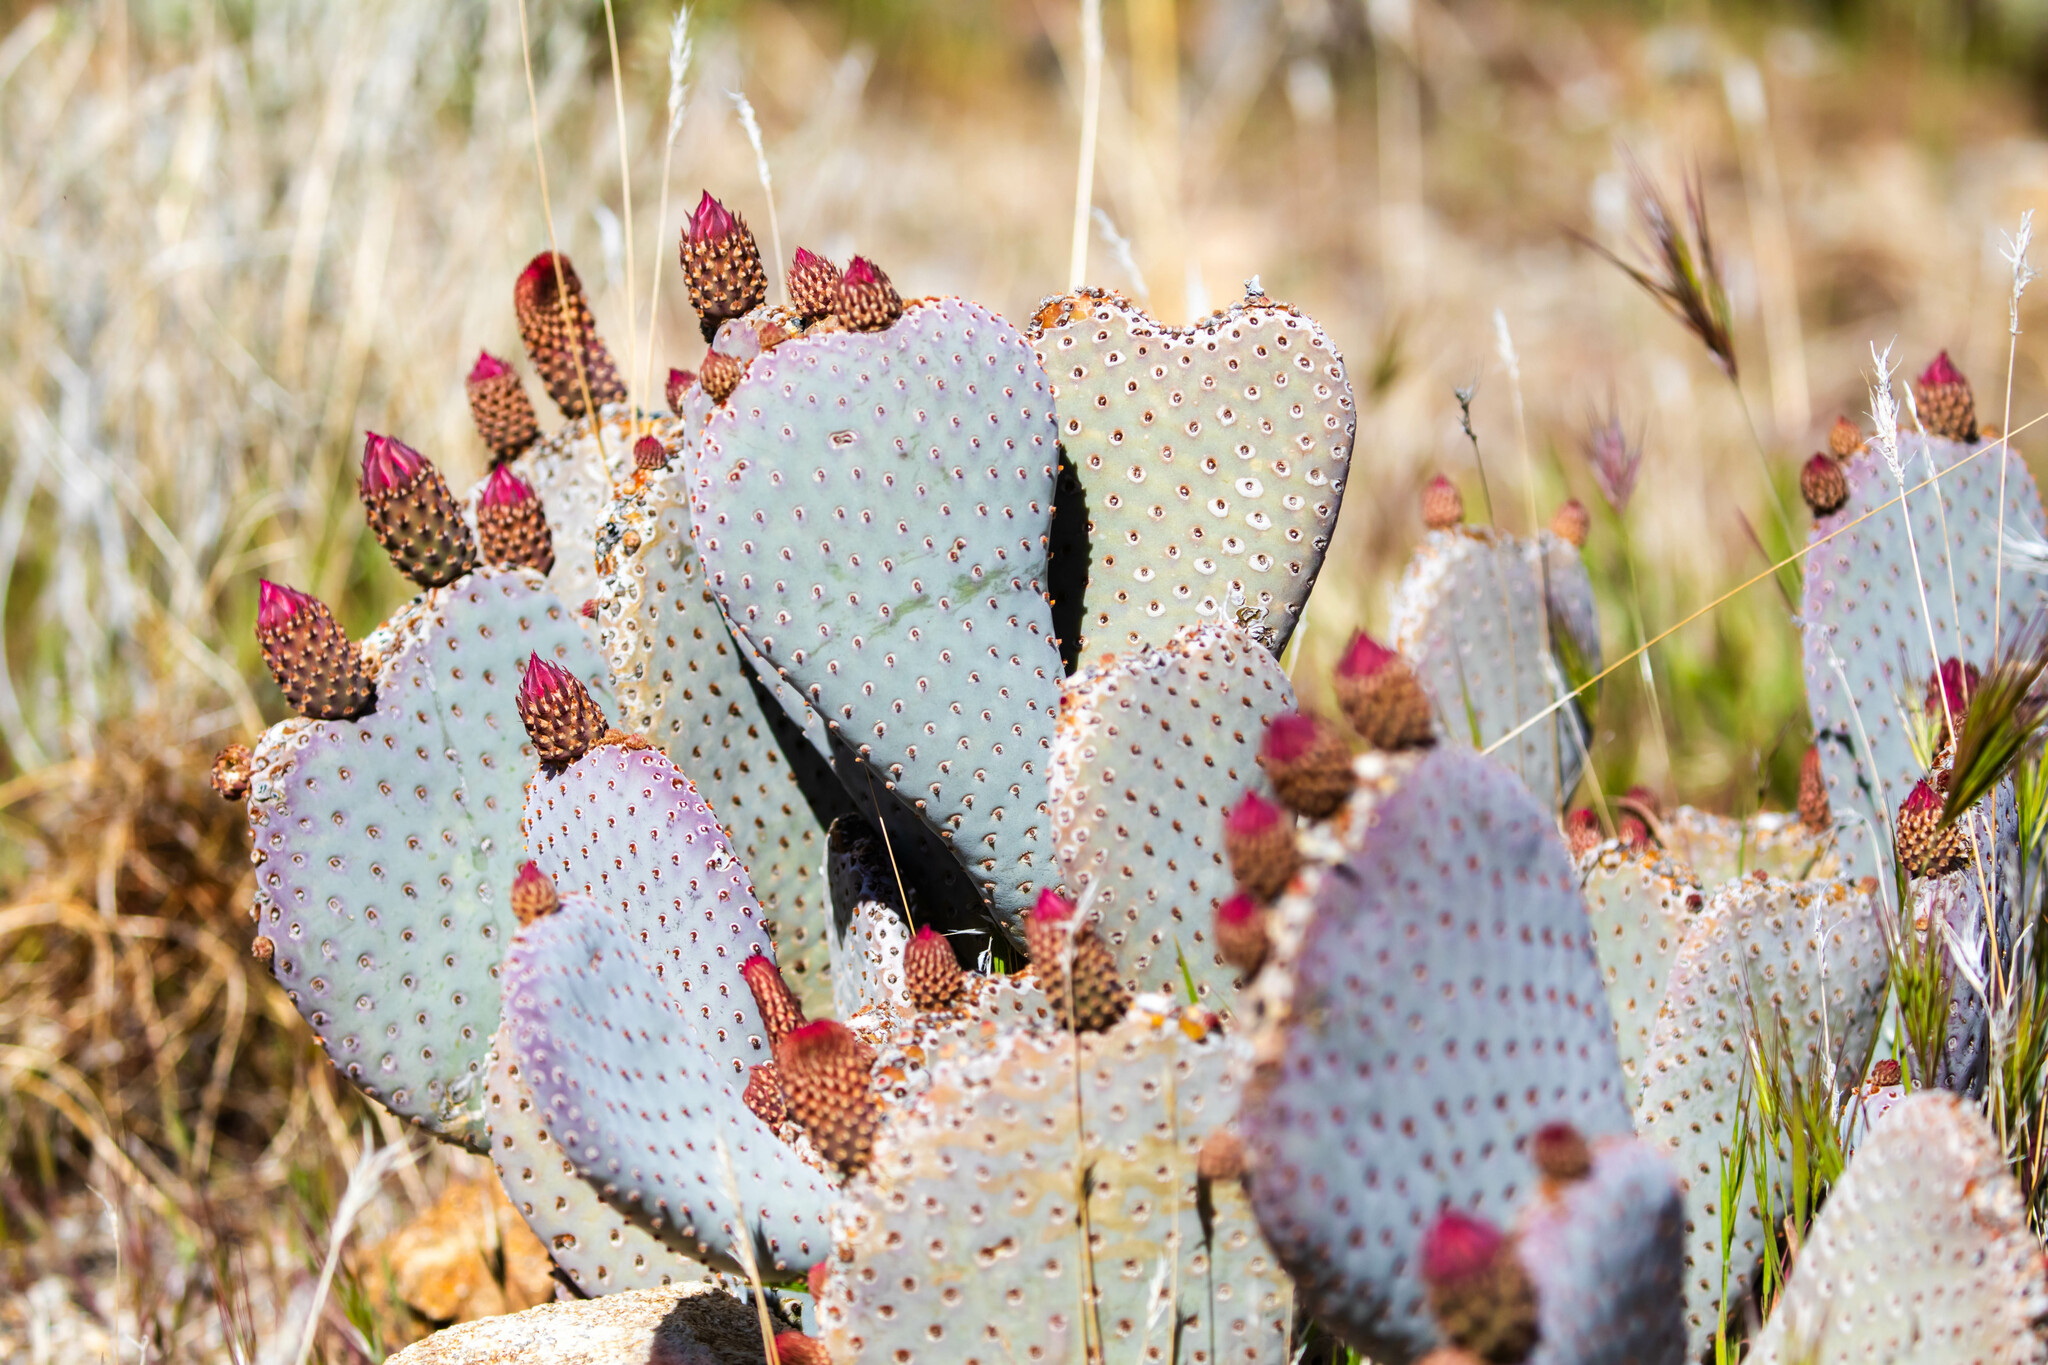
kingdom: Plantae
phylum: Tracheophyta
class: Magnoliopsida
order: Caryophyllales
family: Cactaceae
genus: Opuntia
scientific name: Opuntia basilaris
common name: Beavertail prickly-pear
